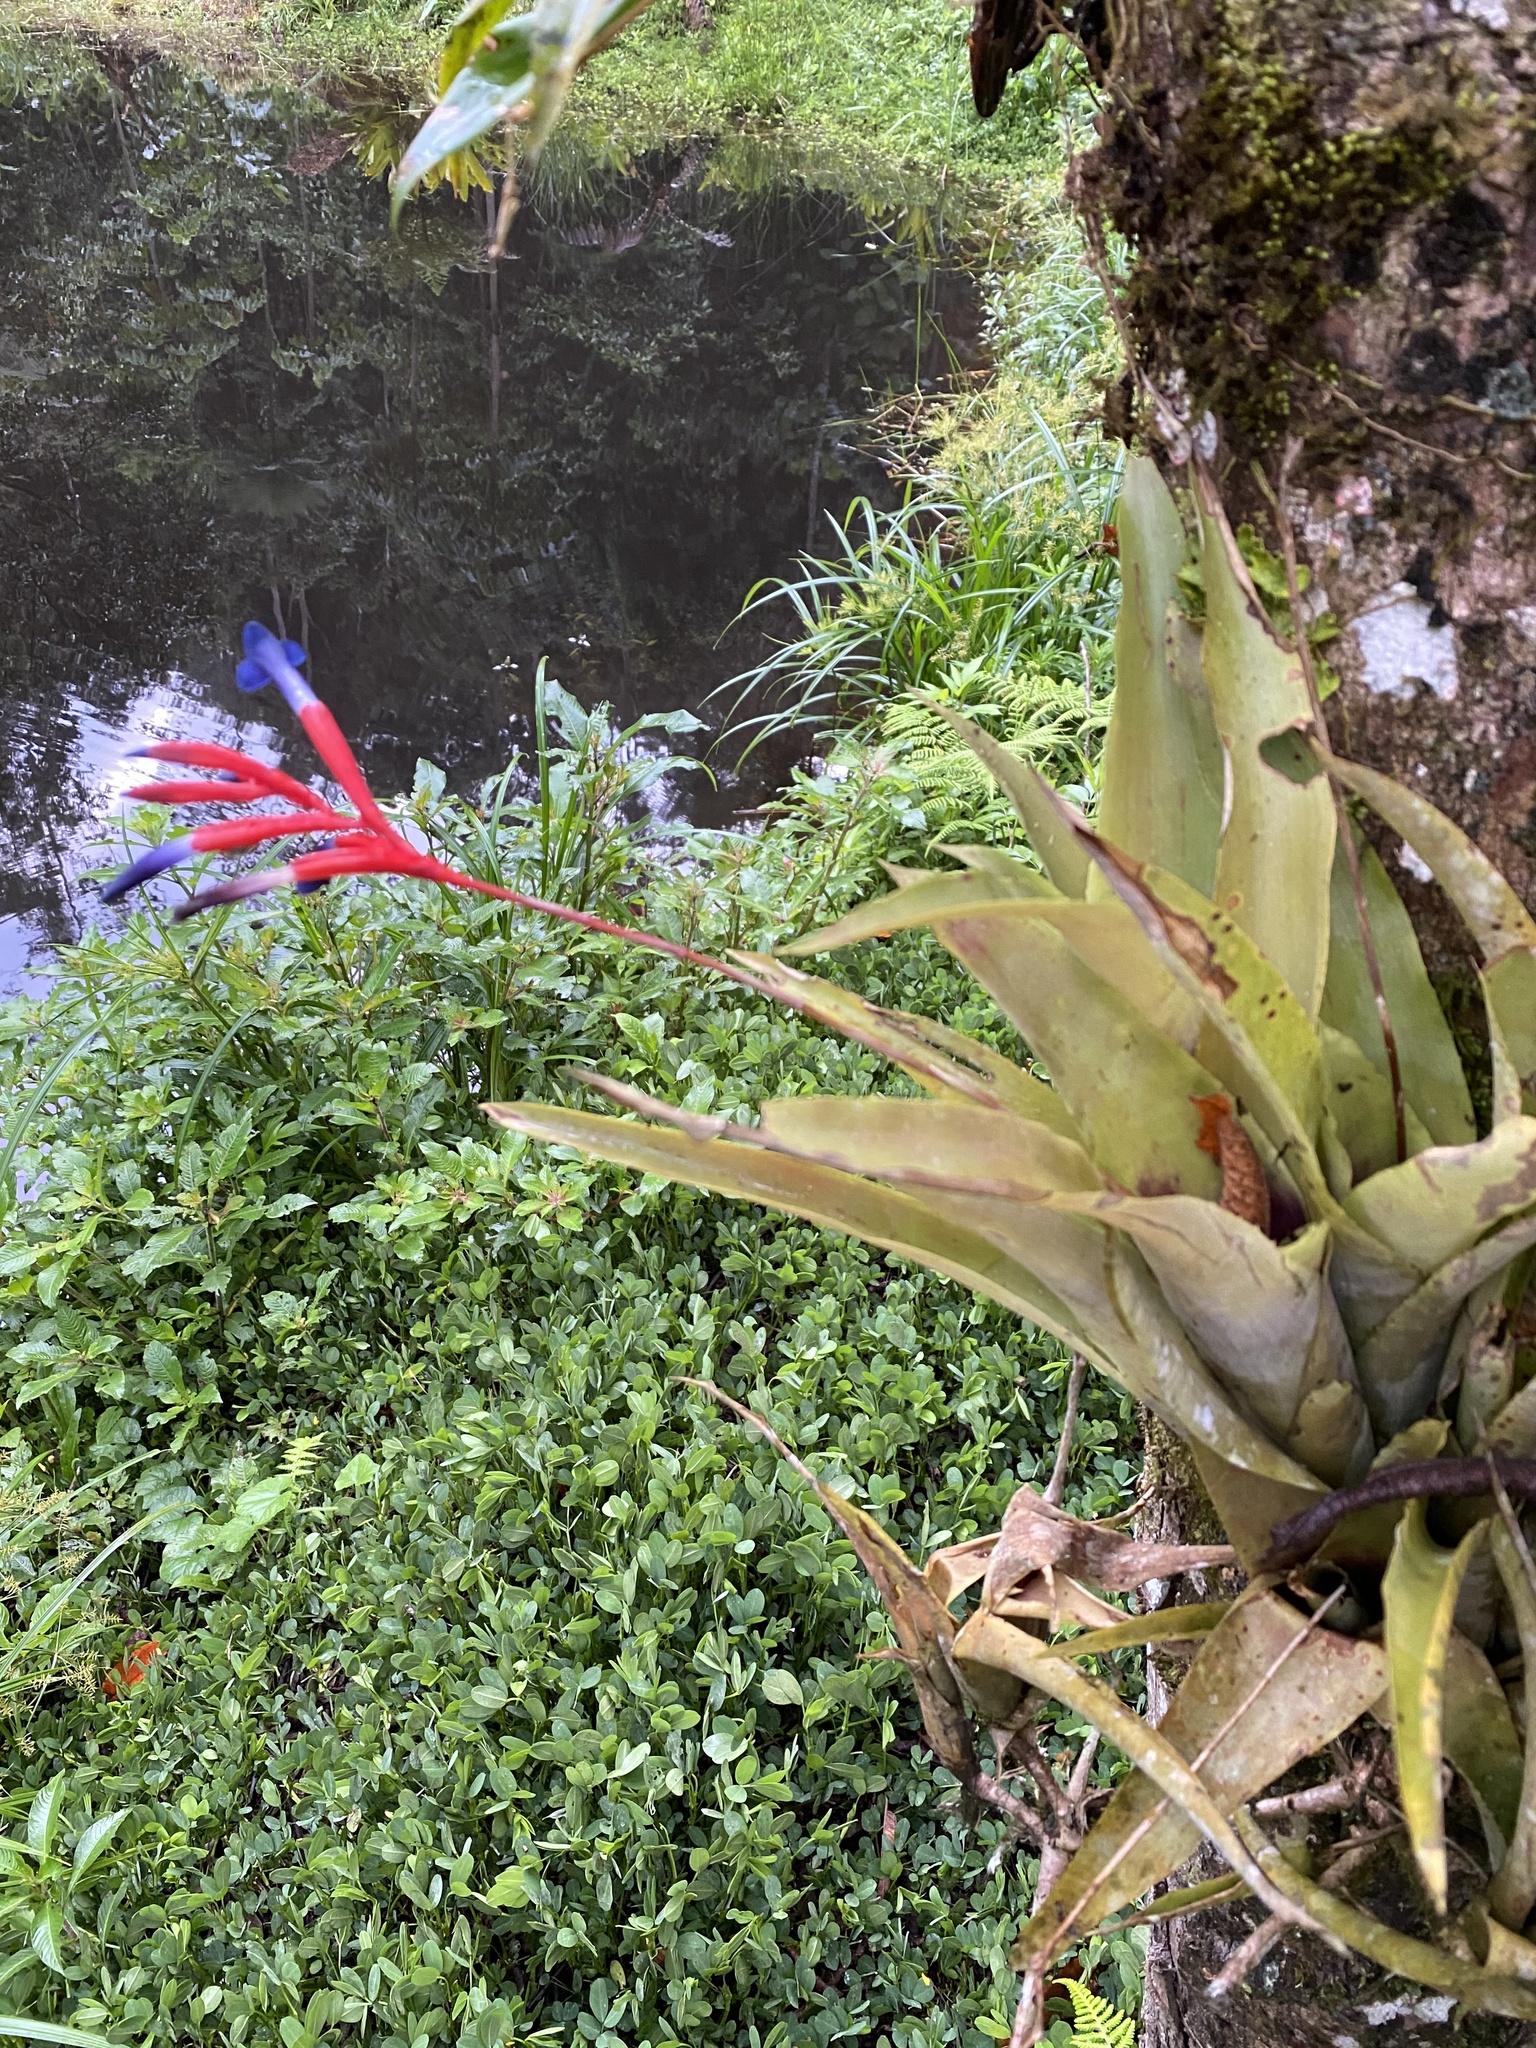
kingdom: Plantae
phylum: Tracheophyta
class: Liliopsida
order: Poales
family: Bromeliaceae
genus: Quesnelia
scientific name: Quesnelia liboniana
